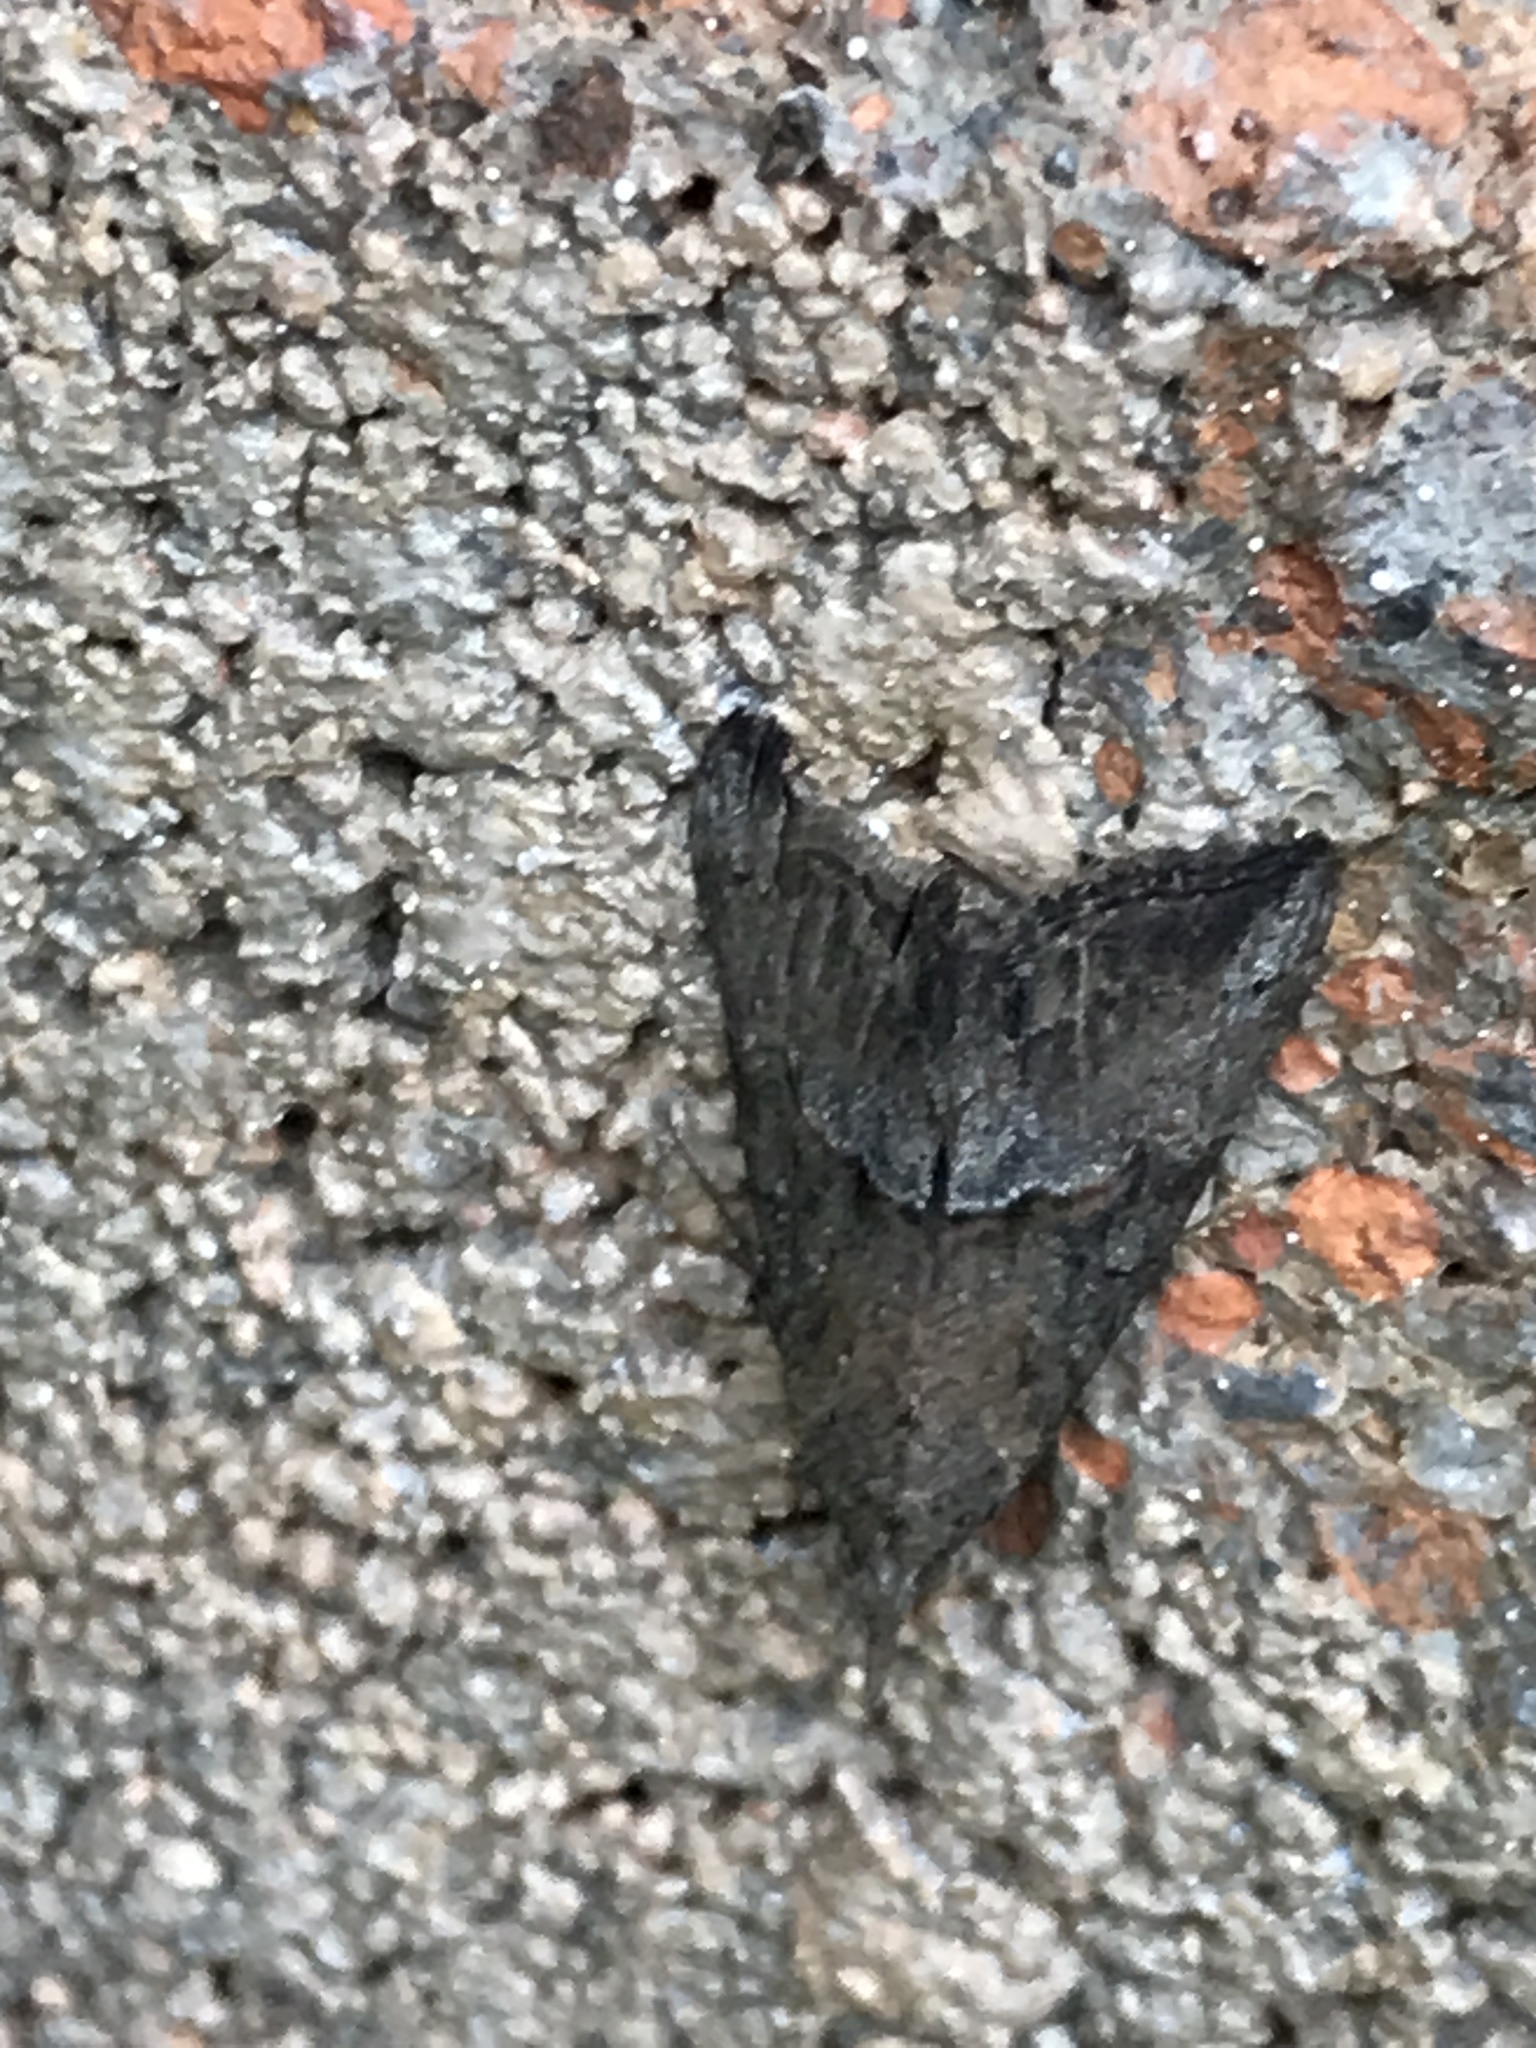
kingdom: Animalia
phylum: Arthropoda
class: Insecta
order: Lepidoptera
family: Erebidae
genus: Hypena
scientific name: Hypena scabra
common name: Green cloverworm
